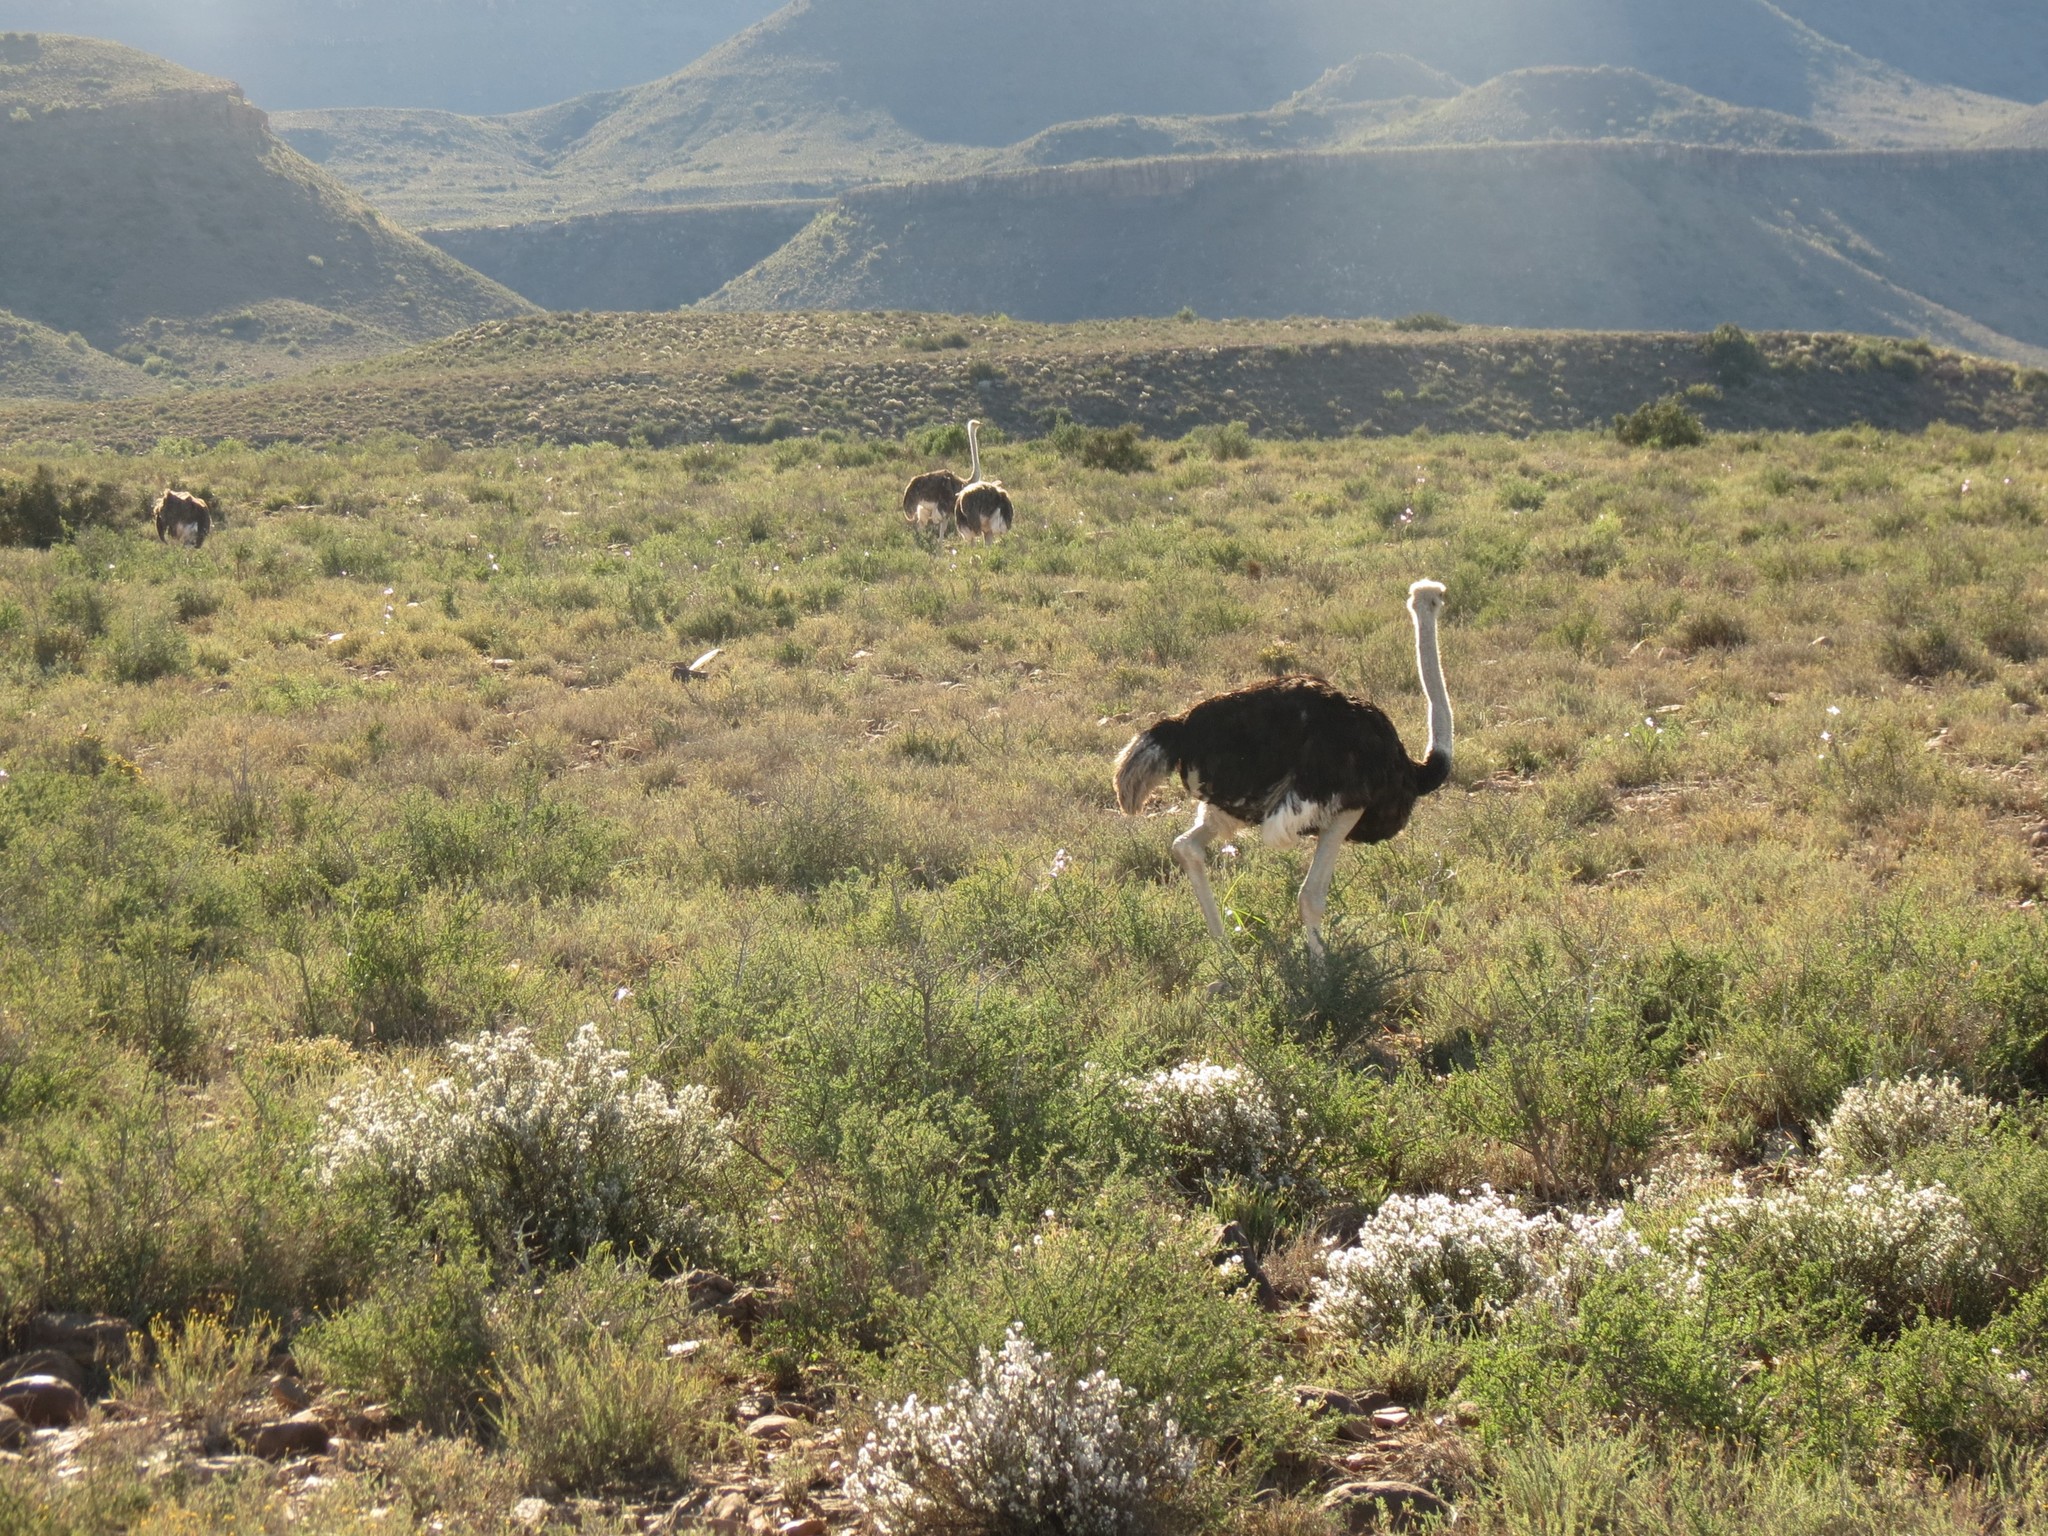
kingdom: Animalia
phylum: Chordata
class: Aves
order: Struthioniformes
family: Struthionidae
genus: Struthio
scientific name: Struthio camelus
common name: Common ostrich
